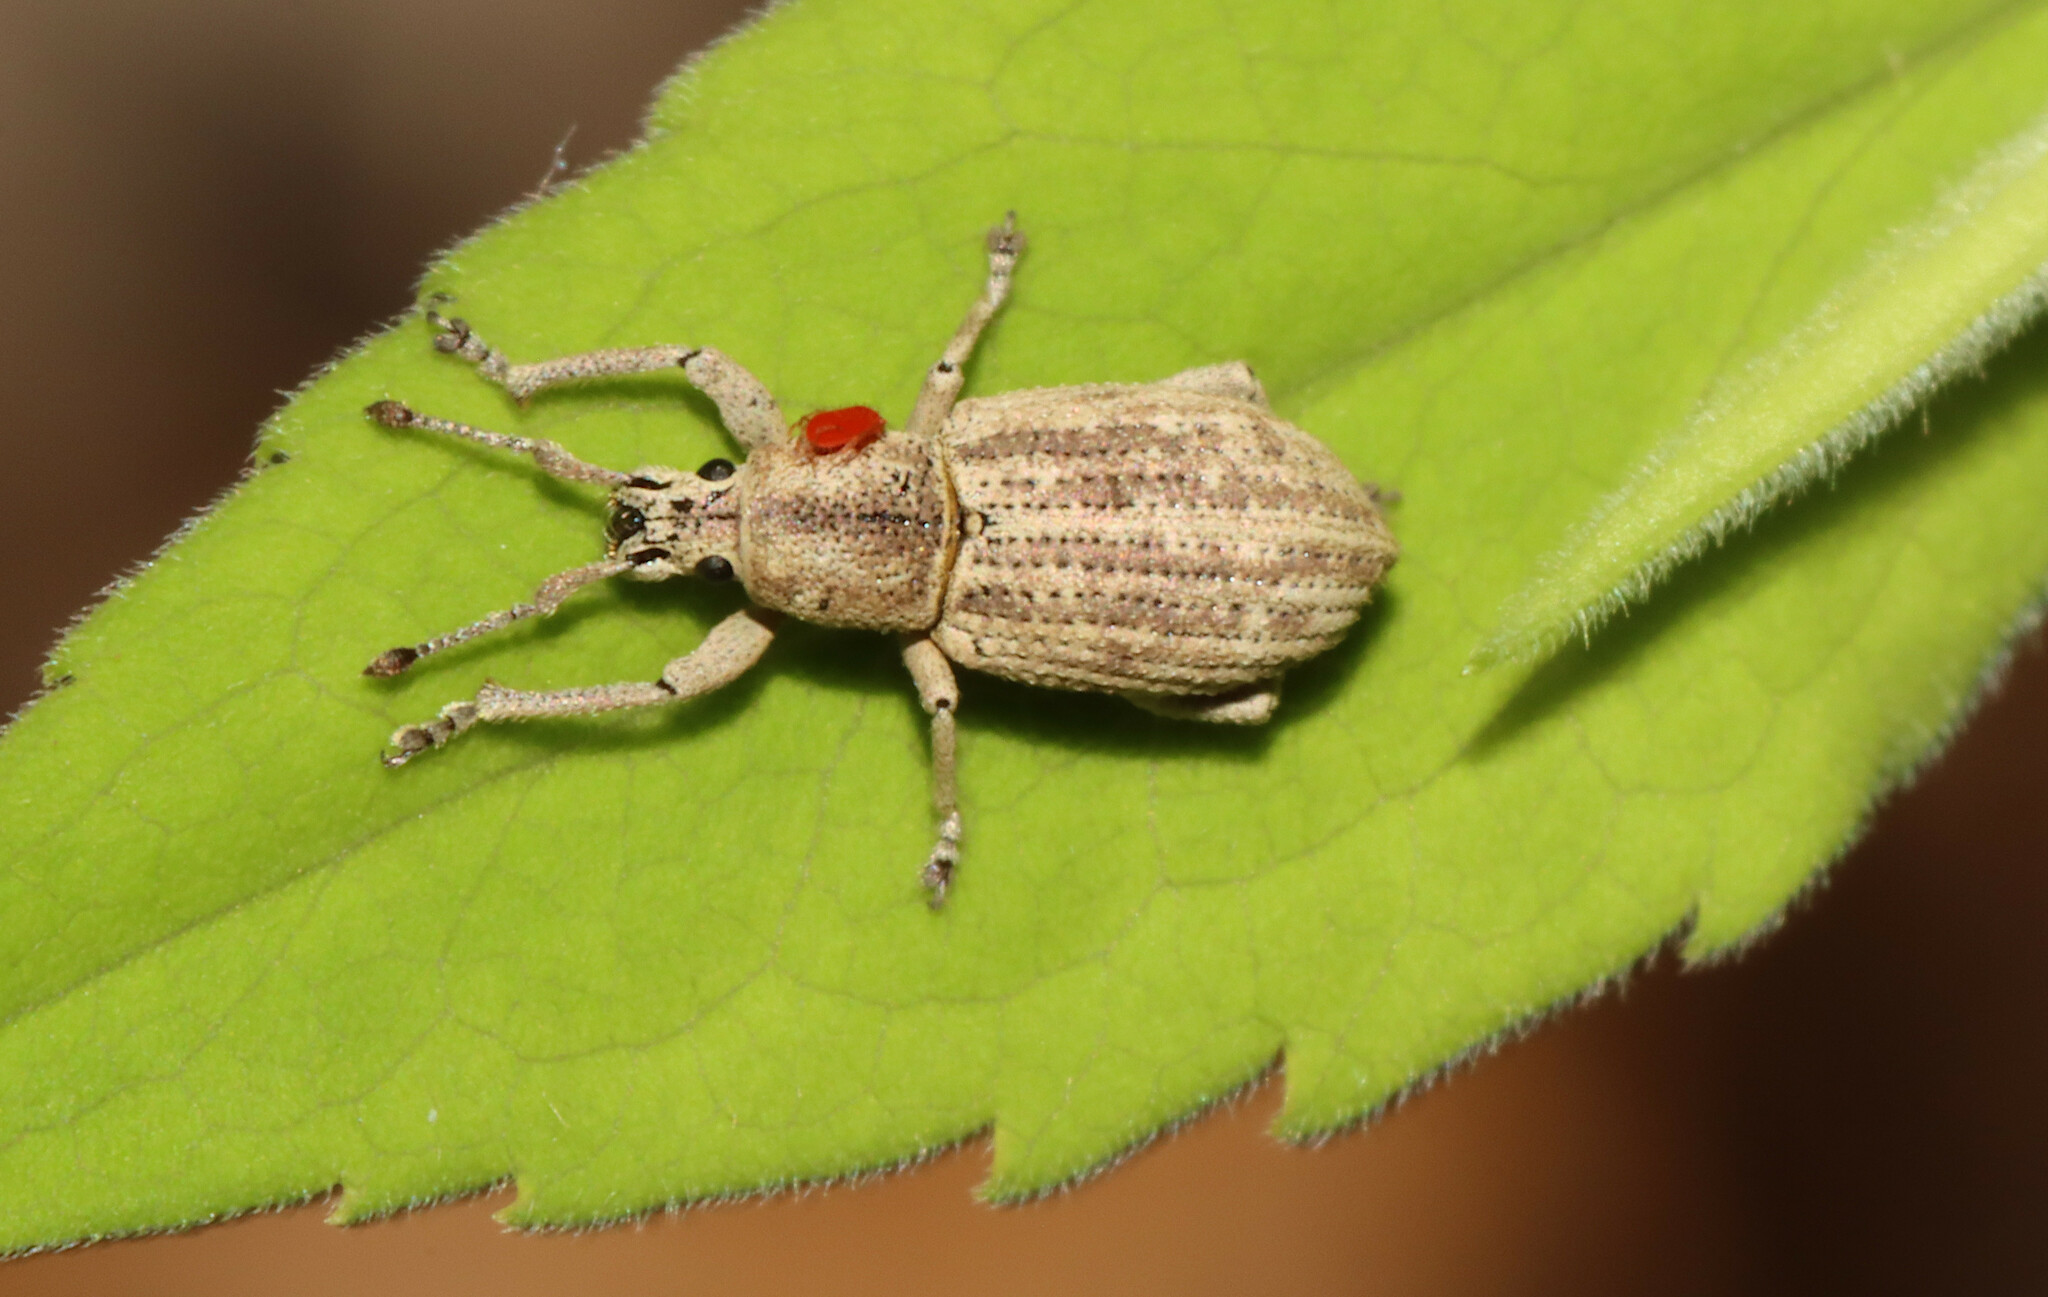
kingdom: Animalia
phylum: Arthropoda
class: Insecta
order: Coleoptera
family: Curculionidae
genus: Aphrastus
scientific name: Aphrastus taeniatus
